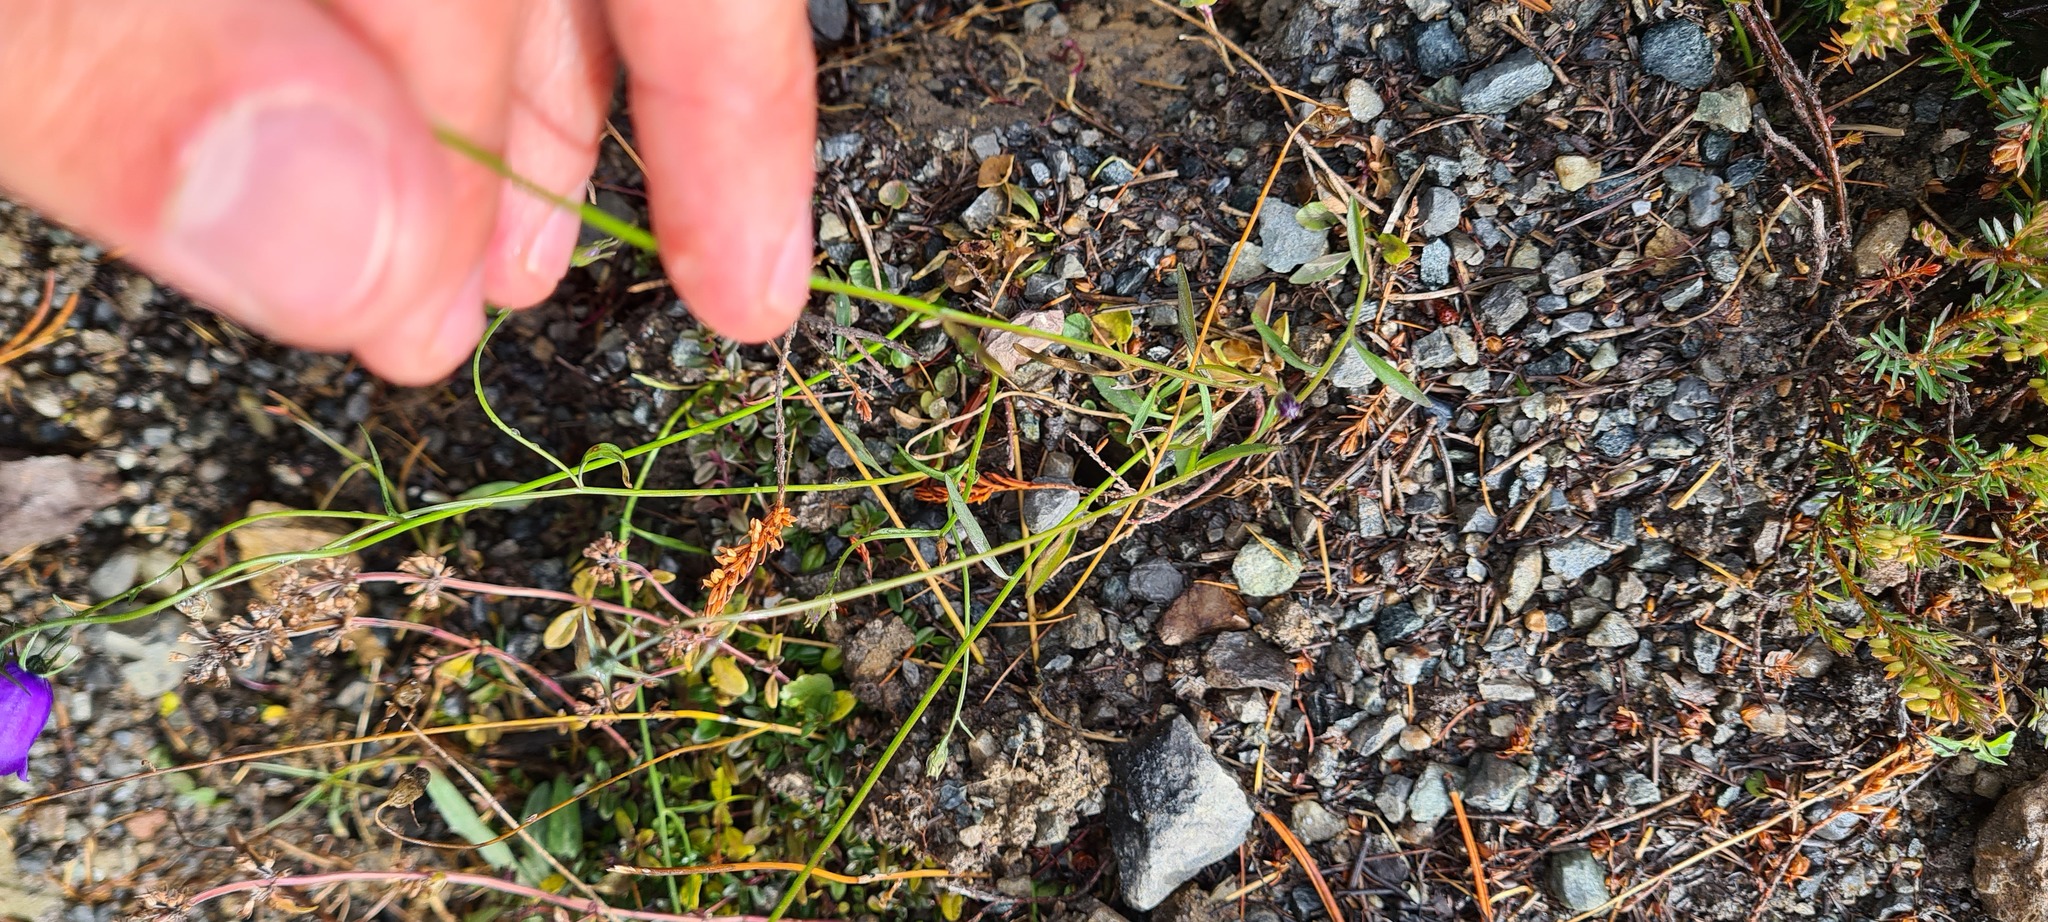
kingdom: Plantae
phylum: Tracheophyta
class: Magnoliopsida
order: Asterales
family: Campanulaceae
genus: Campanula
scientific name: Campanula rotundifolia
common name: Harebell
